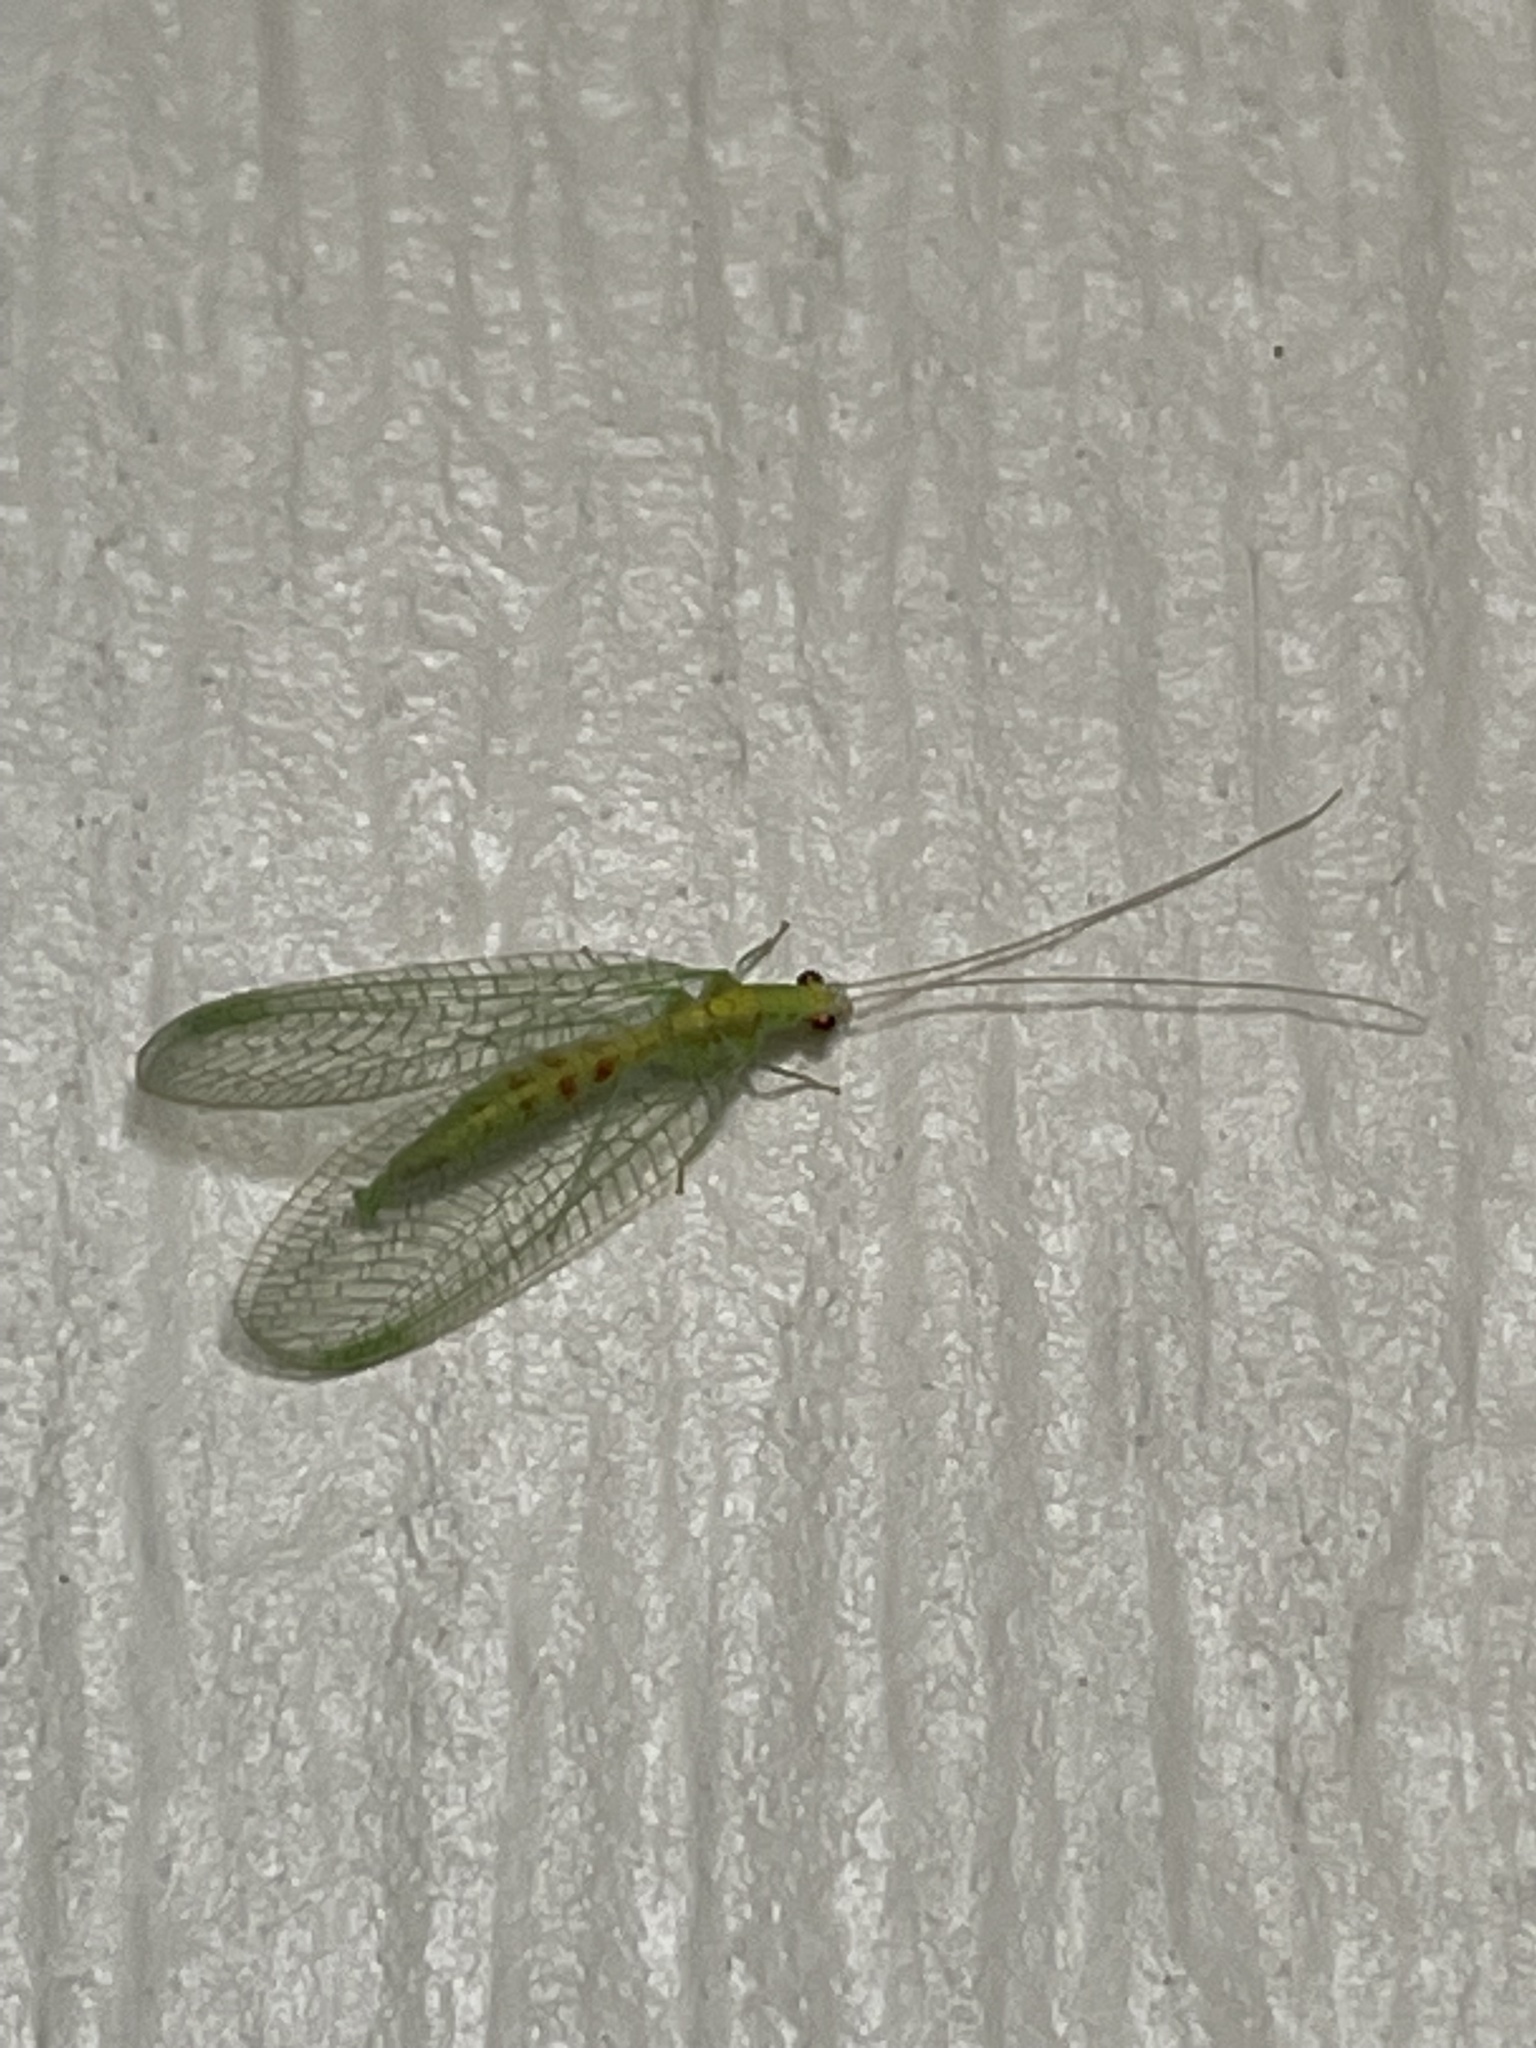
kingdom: Animalia
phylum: Arthropoda
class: Insecta
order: Neuroptera
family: Chrysopidae
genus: Chrysopa
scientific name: Chrysopa quadripunctata
